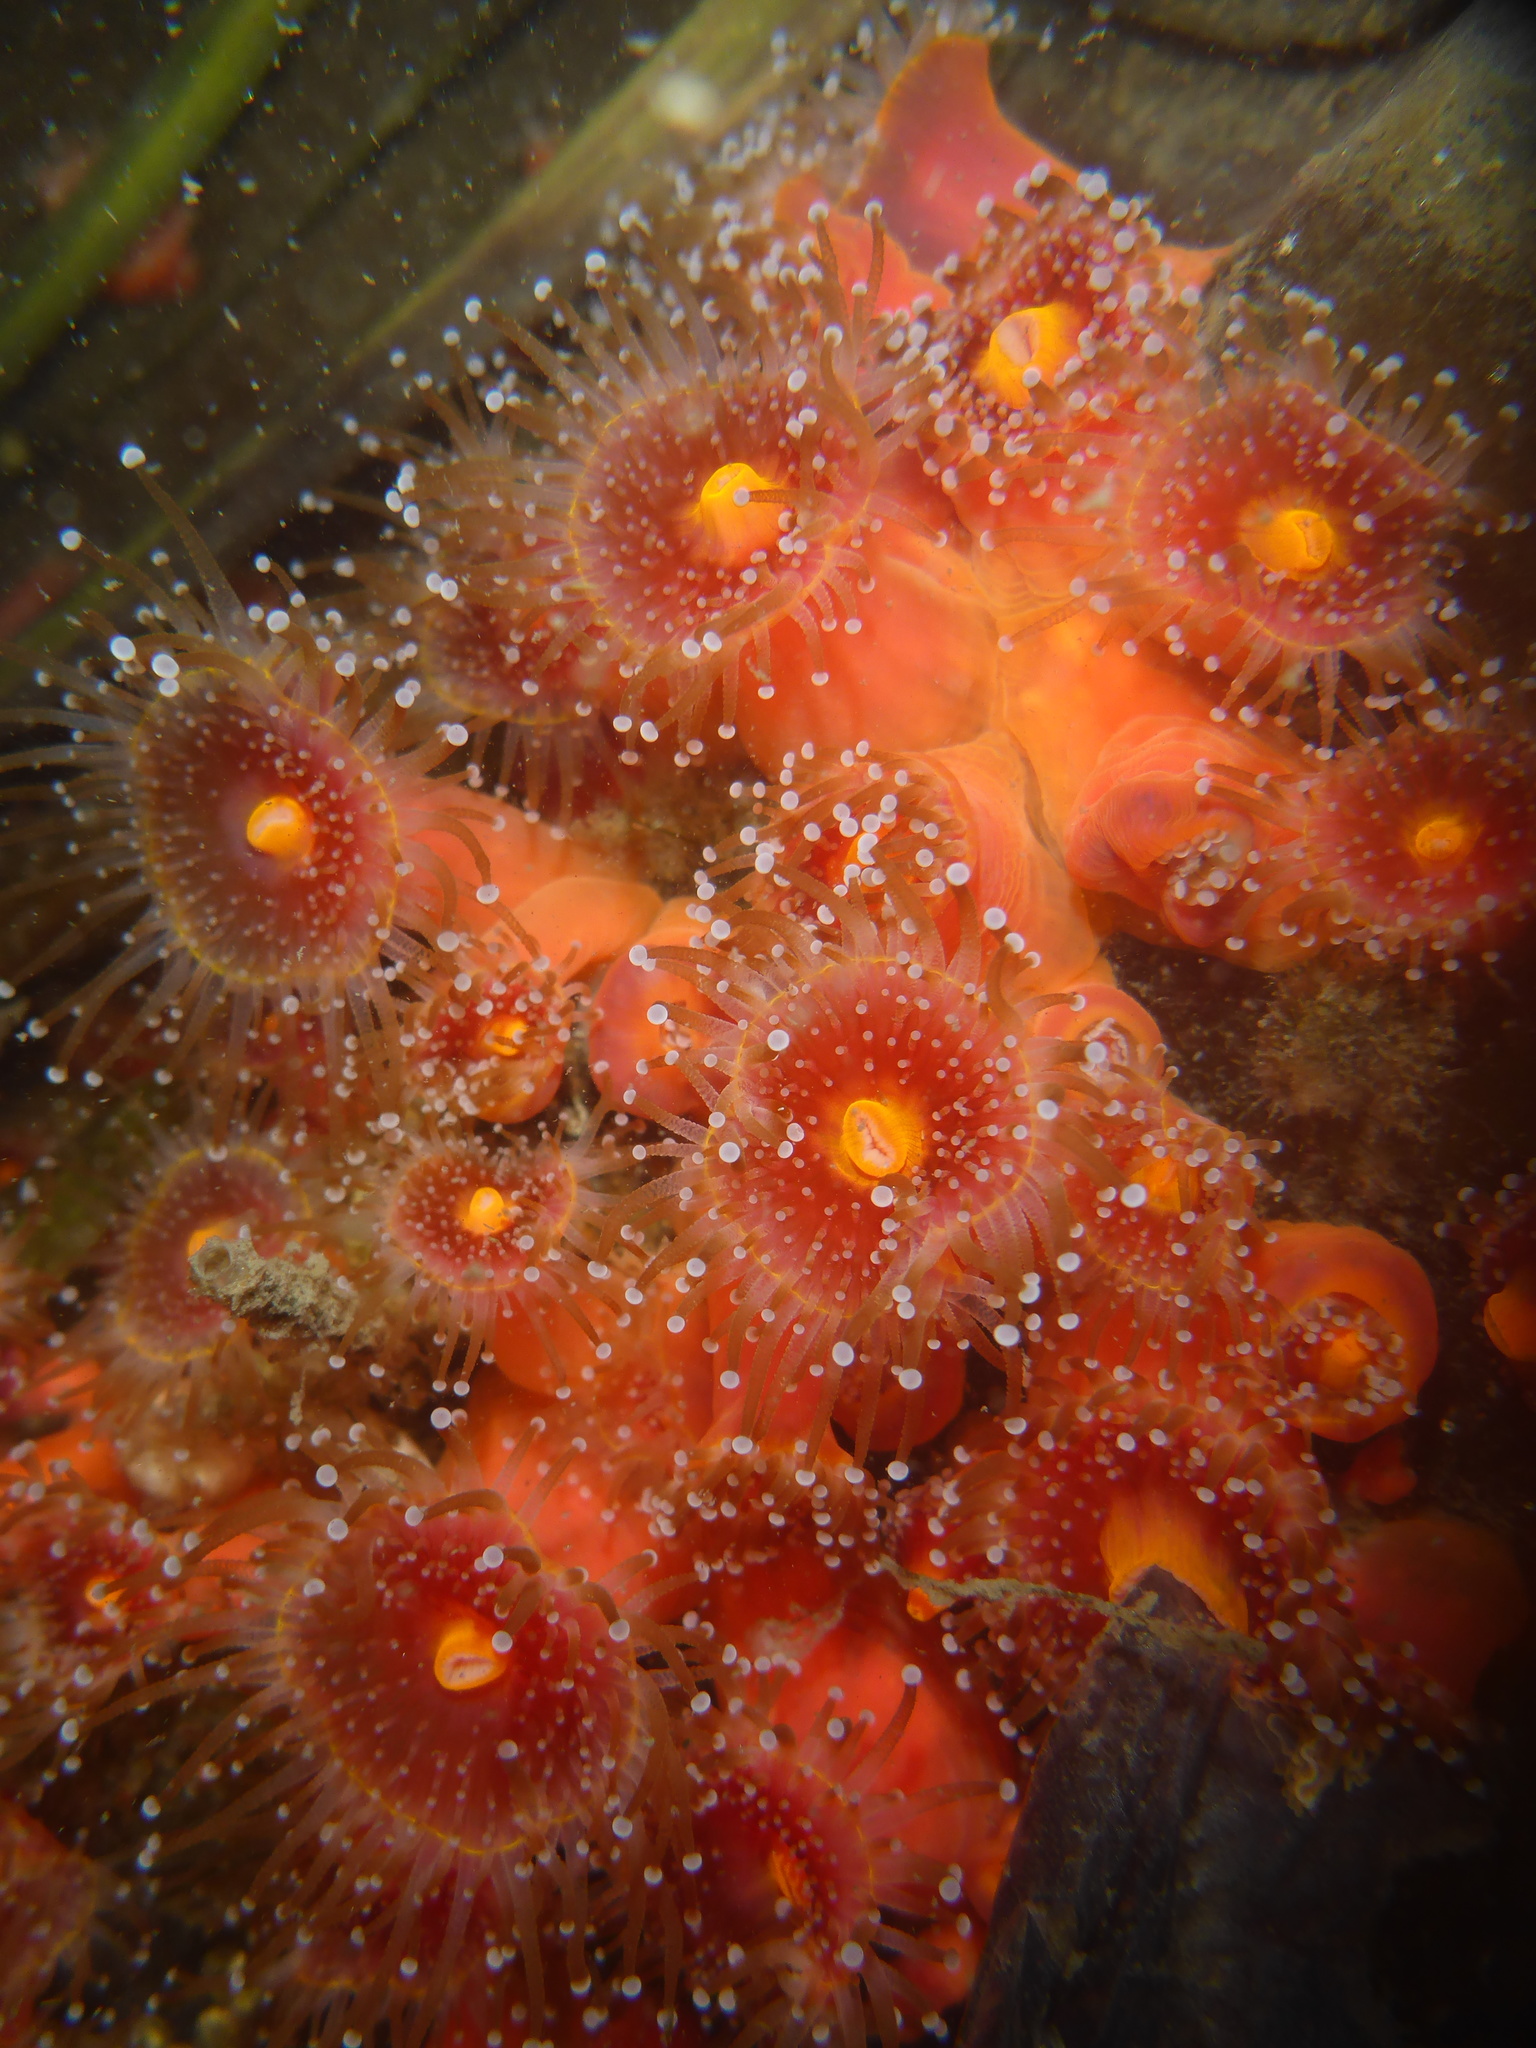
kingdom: Animalia
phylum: Cnidaria
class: Anthozoa
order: Corallimorpharia
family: Corallimorphidae
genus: Corynactis
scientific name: Corynactis californica
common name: Strawberry corallimorpharian
